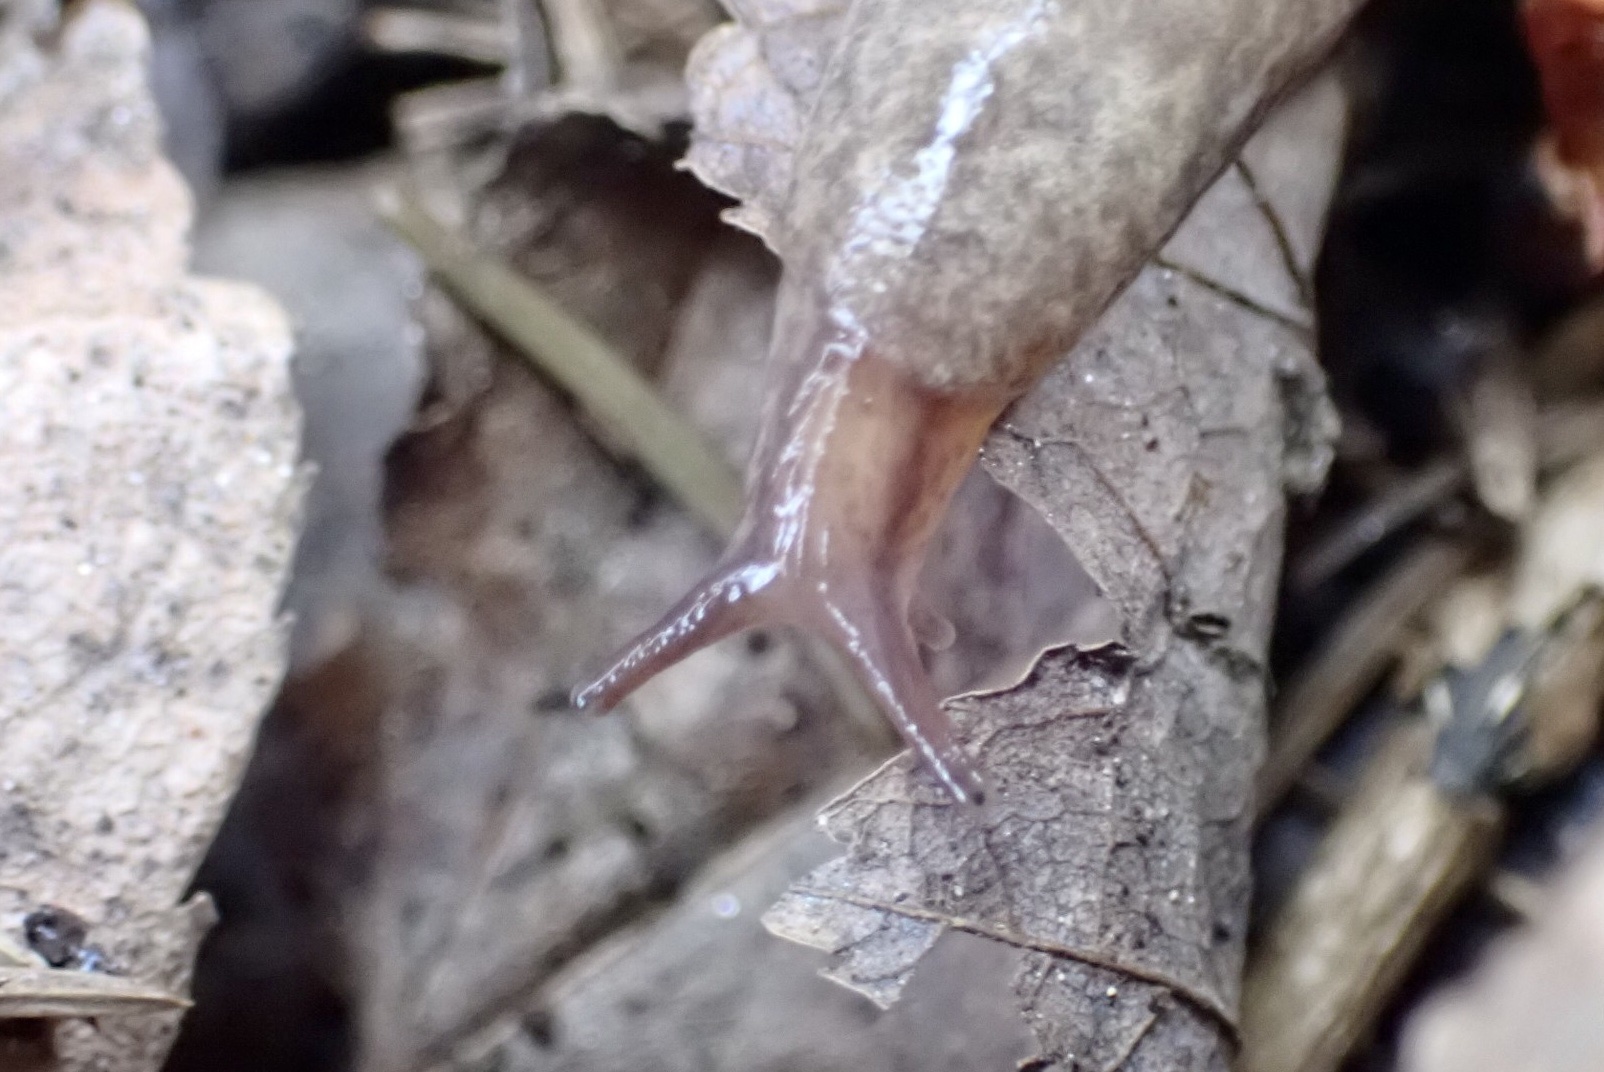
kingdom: Animalia
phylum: Mollusca
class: Gastropoda
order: Stylommatophora
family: Agriolimacidae
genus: Deroceras
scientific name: Deroceras reticulatum
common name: Gray field slug
